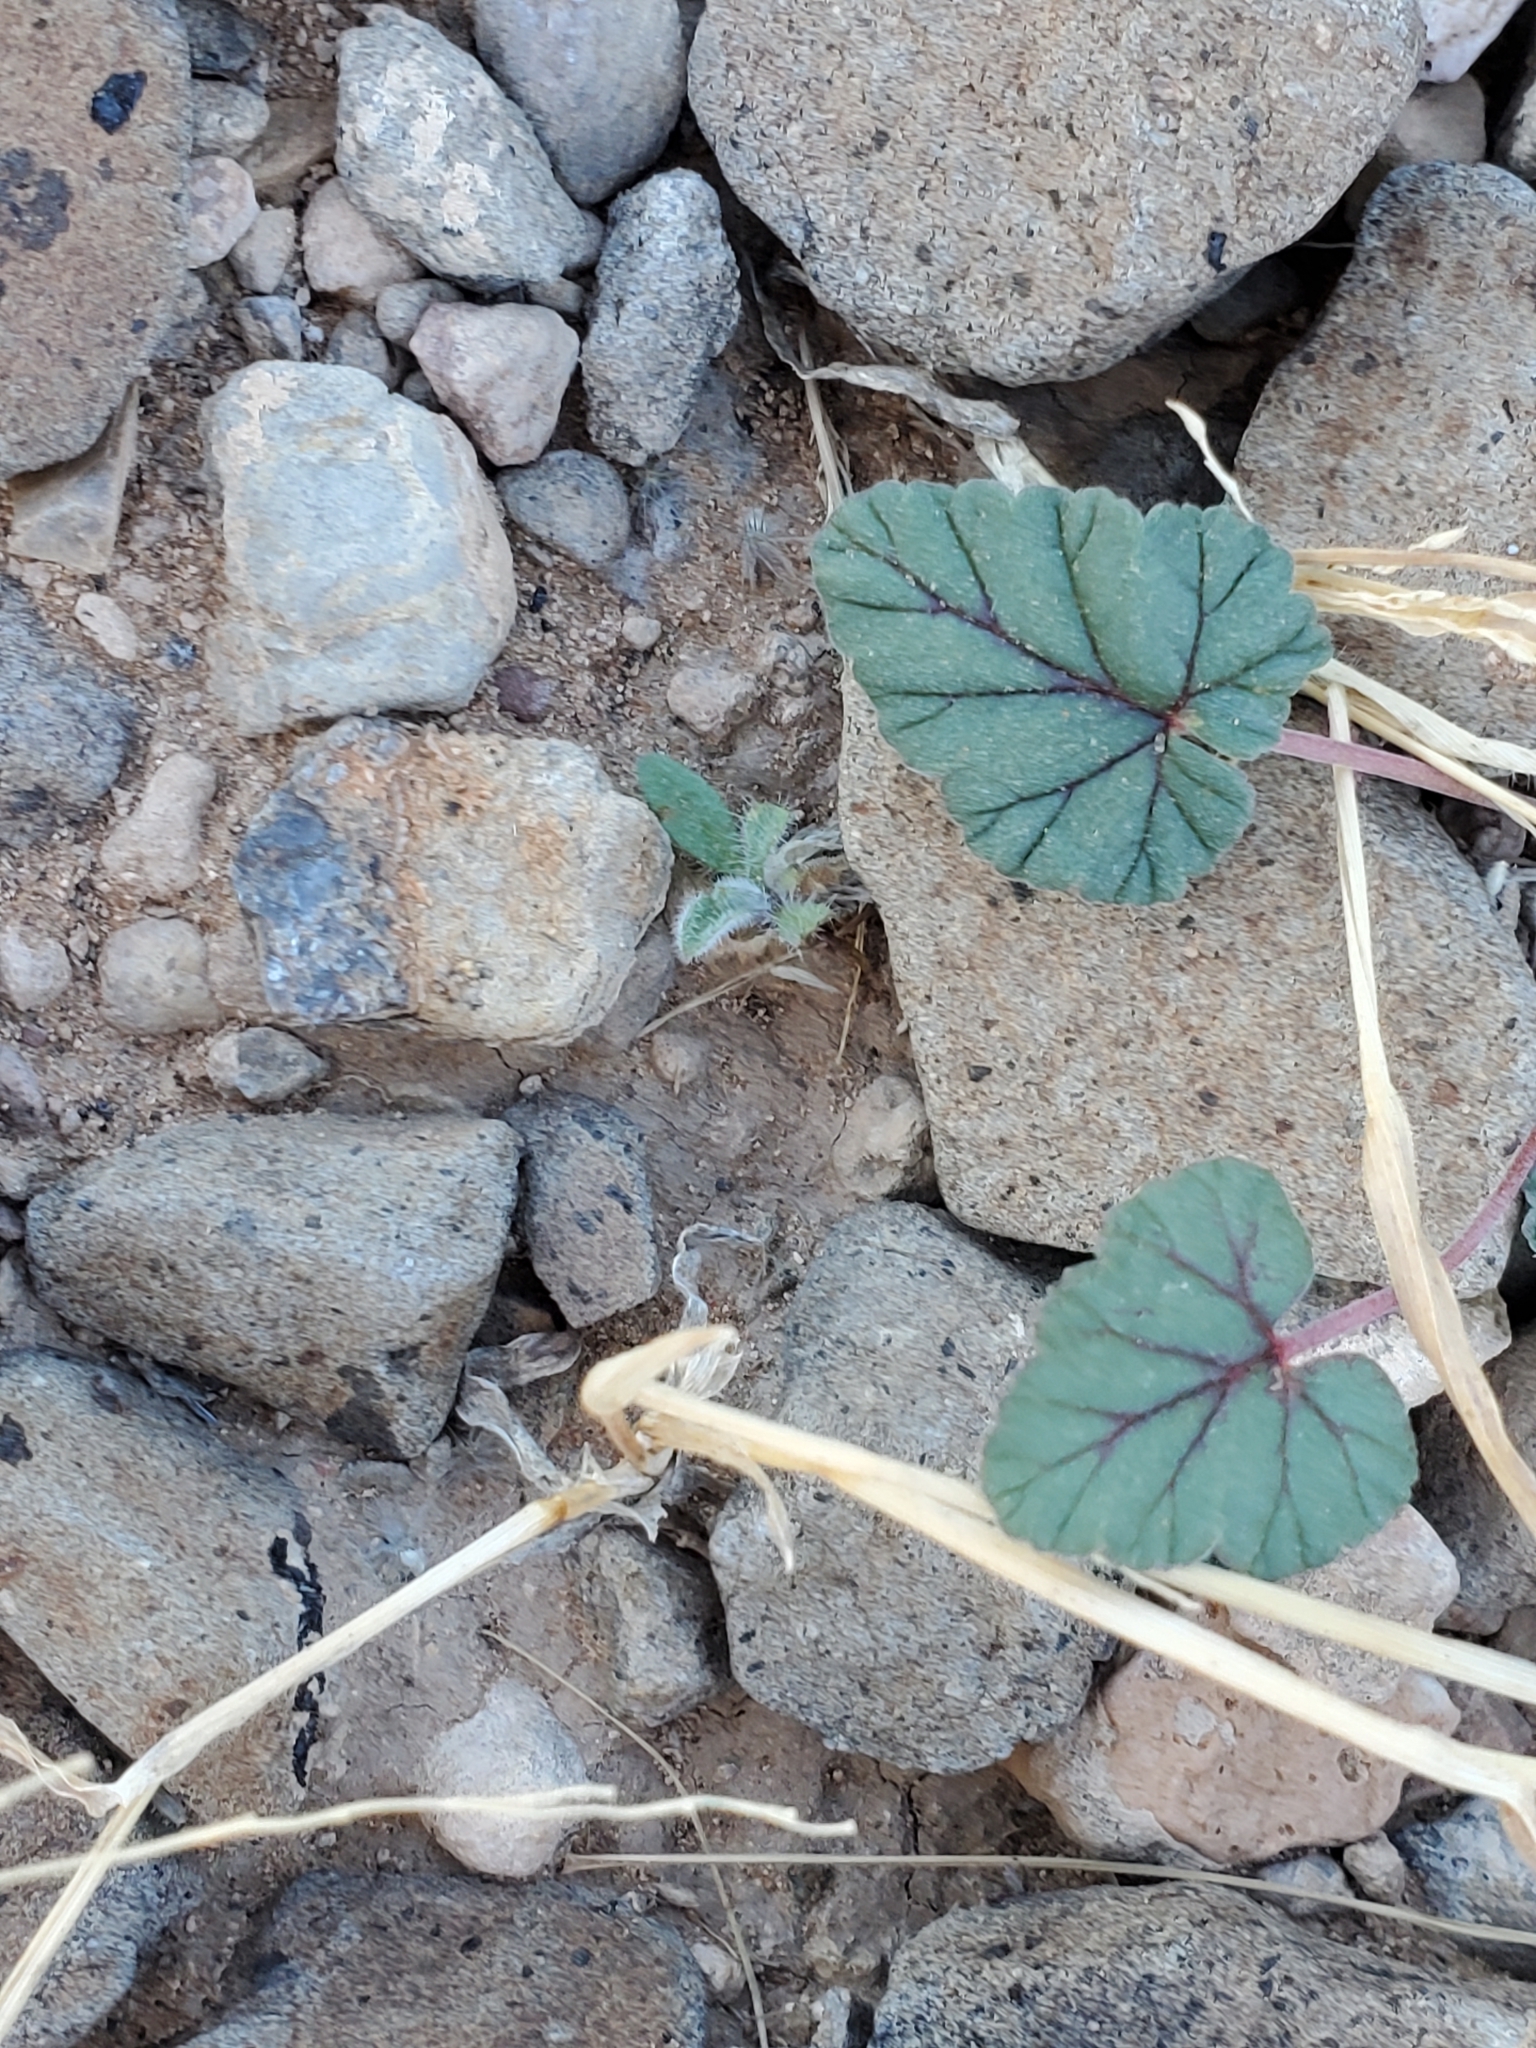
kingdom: Plantae
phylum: Tracheophyta
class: Magnoliopsida
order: Geraniales
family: Geraniaceae
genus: Erodium
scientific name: Erodium texanum
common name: Texas stork's-bill
